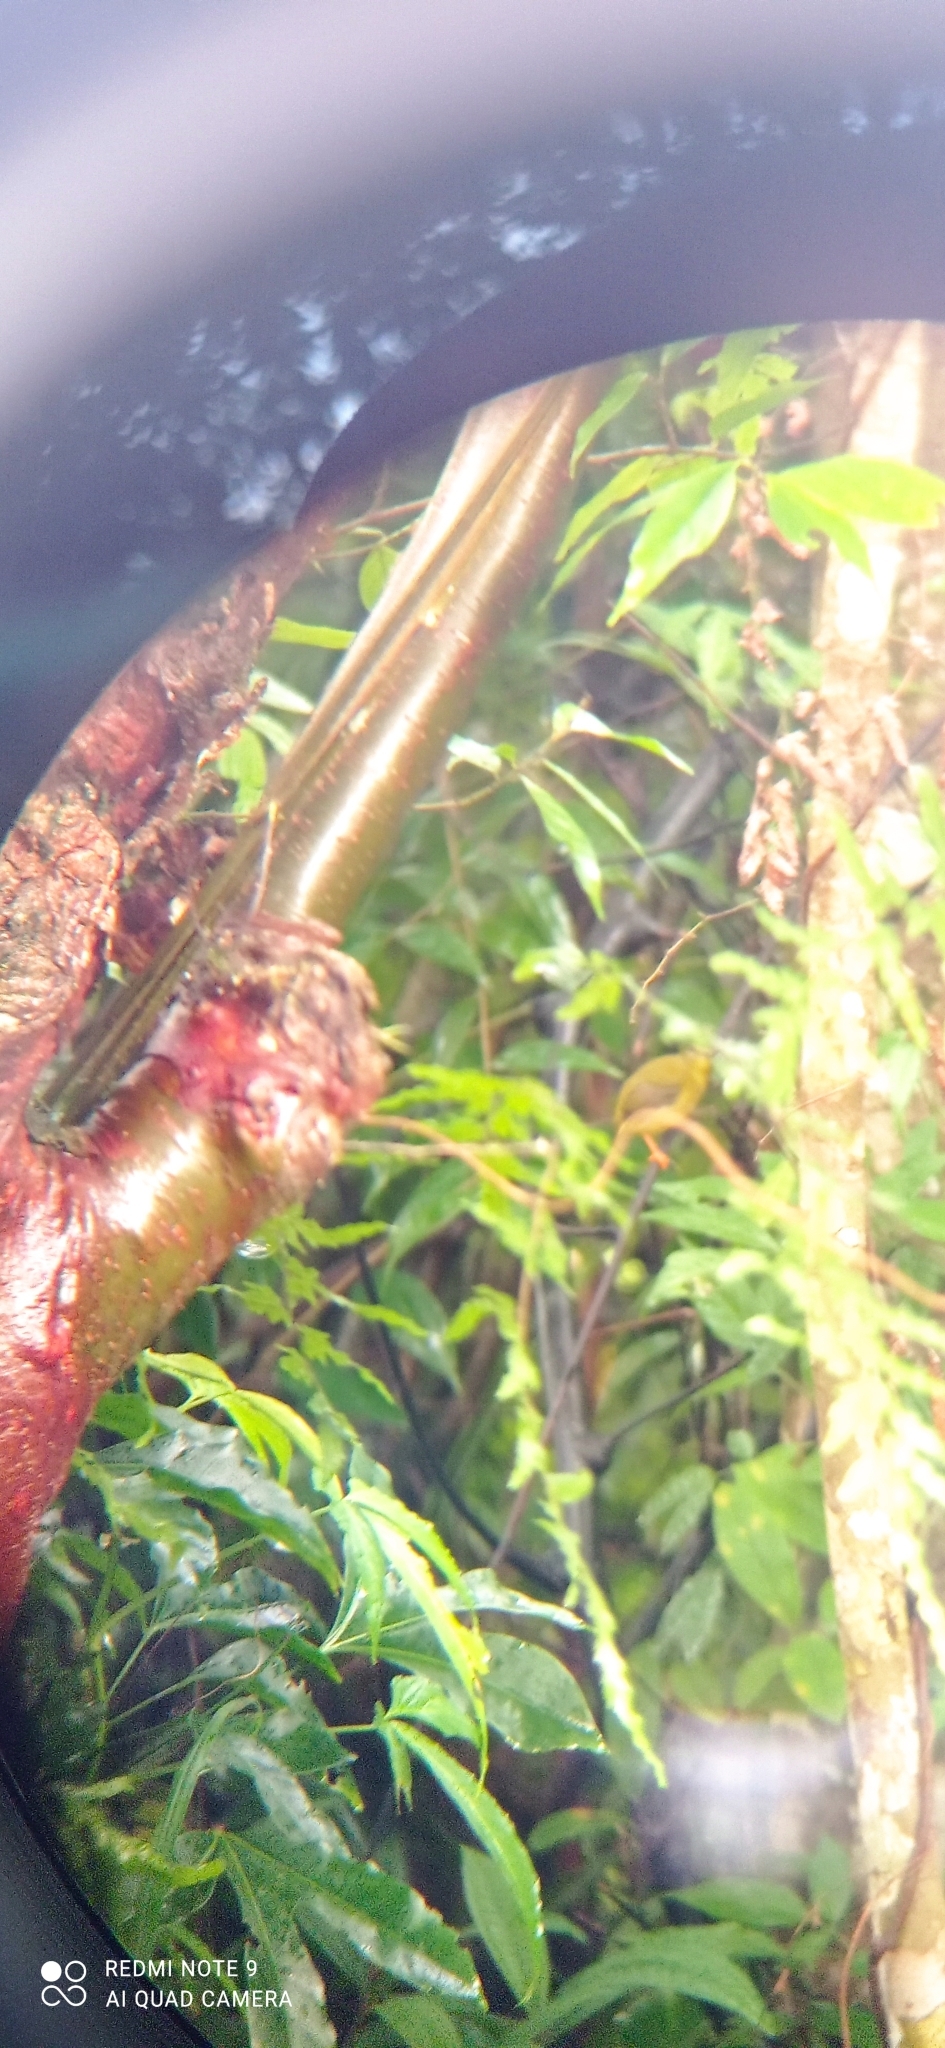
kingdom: Animalia
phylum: Chordata
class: Aves
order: Passeriformes
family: Pipridae
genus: Manacus
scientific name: Manacus aurantiacus
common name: Orange-collared manakin
